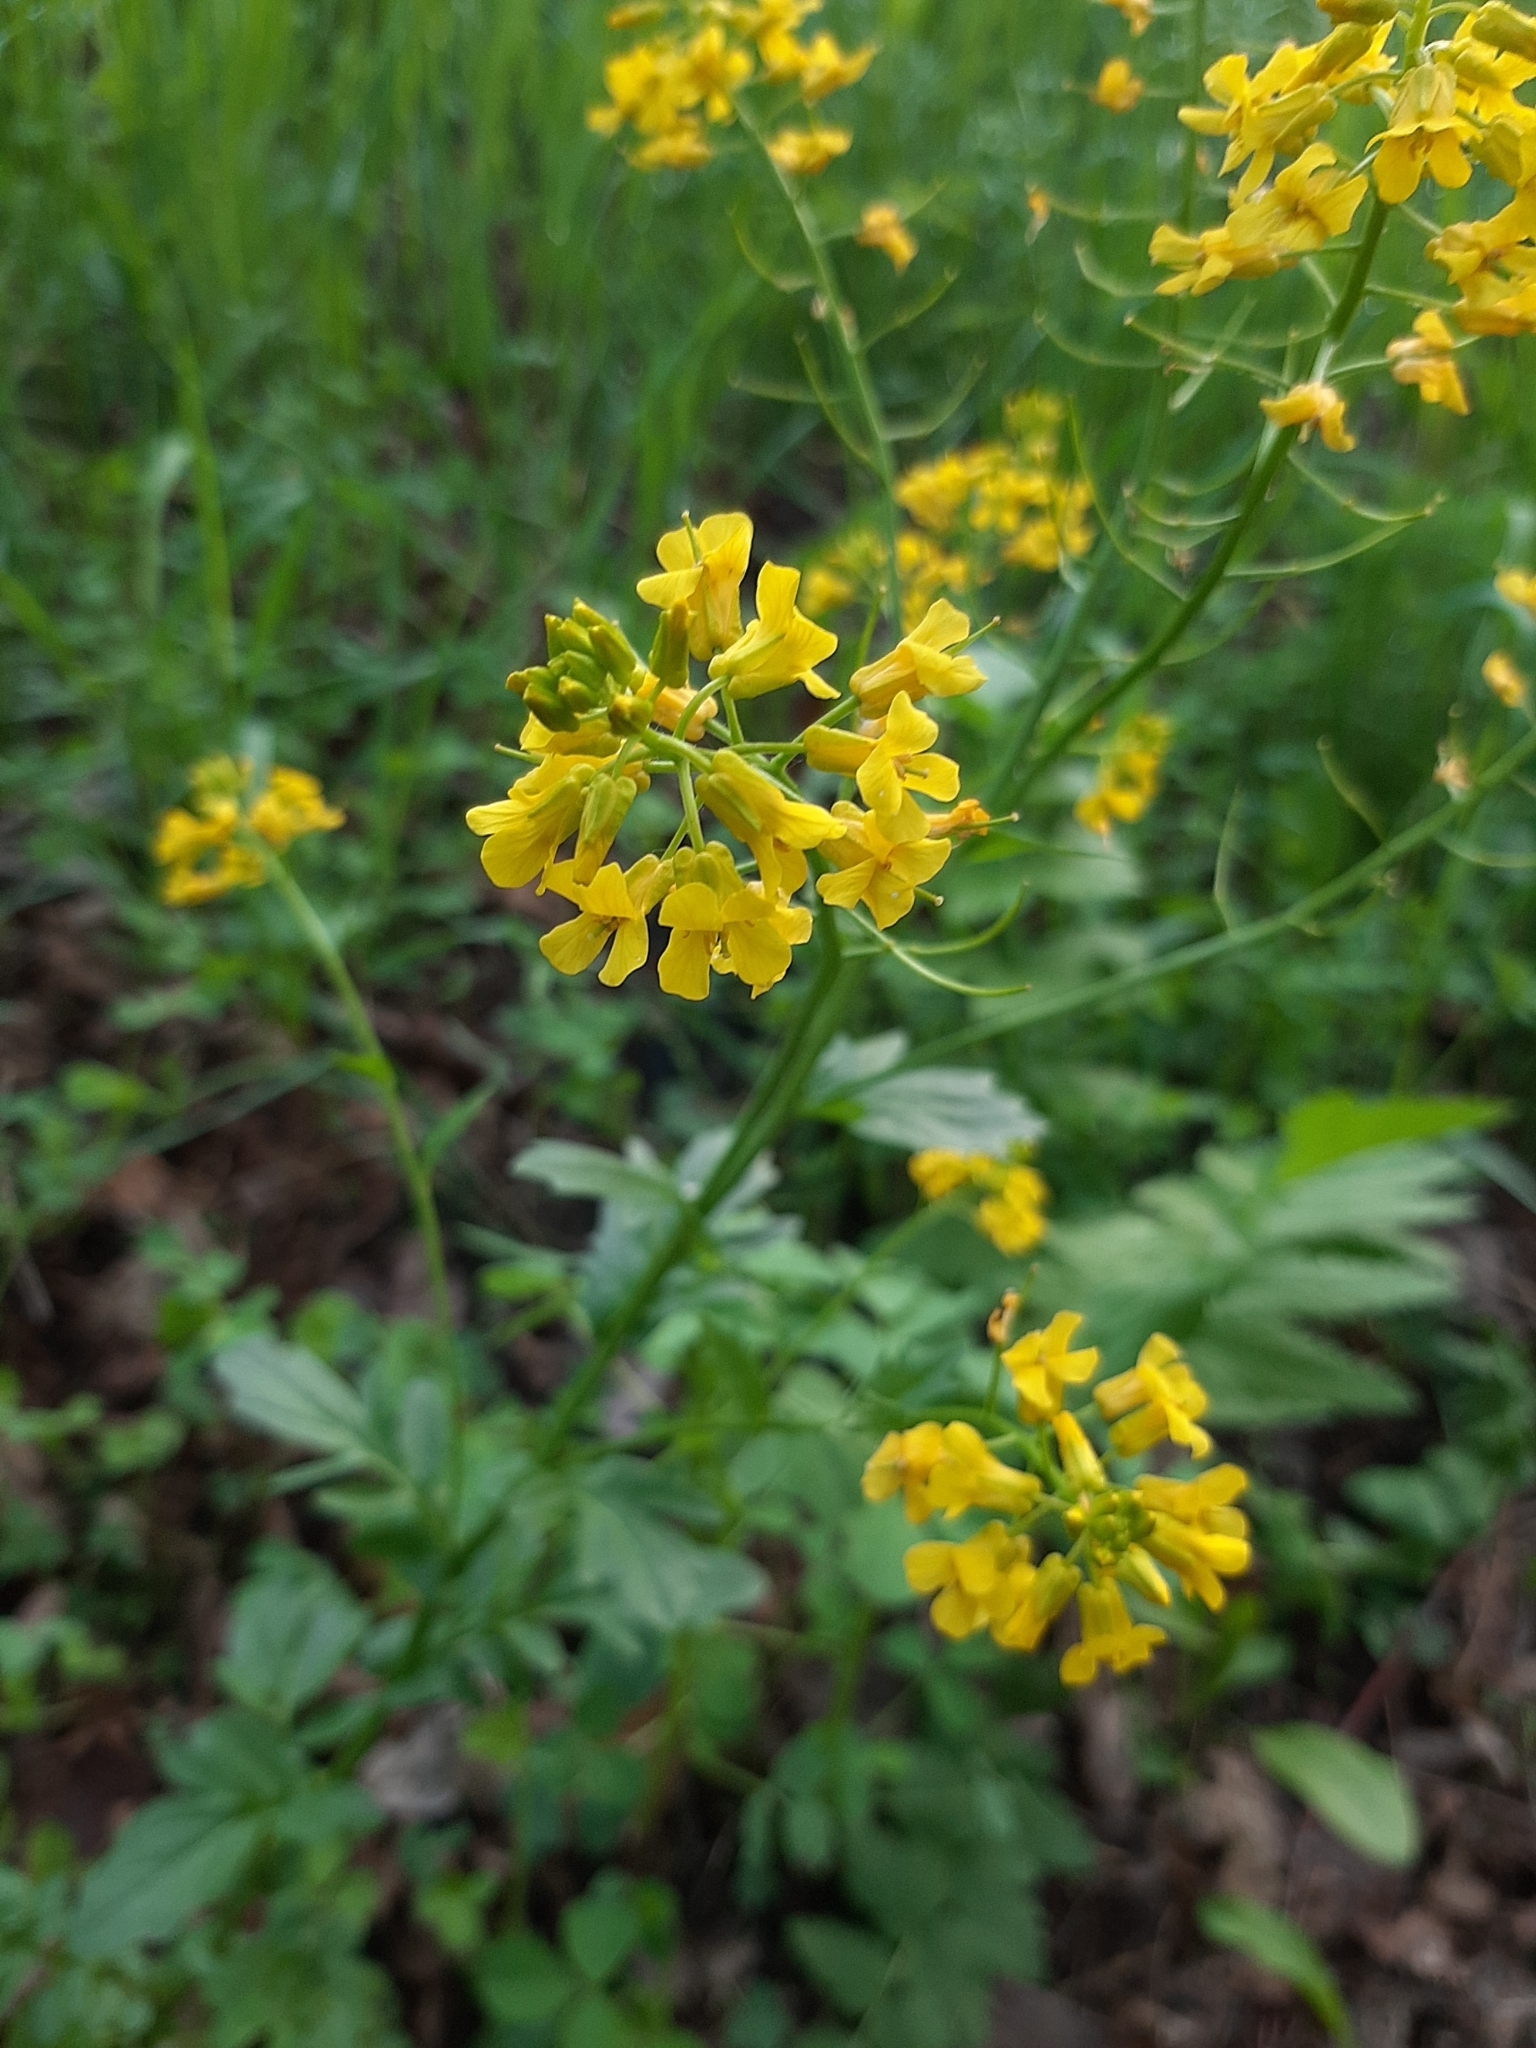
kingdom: Plantae
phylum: Tracheophyta
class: Magnoliopsida
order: Brassicales
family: Brassicaceae
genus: Barbarea
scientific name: Barbarea vulgaris
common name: Cressy-greens
